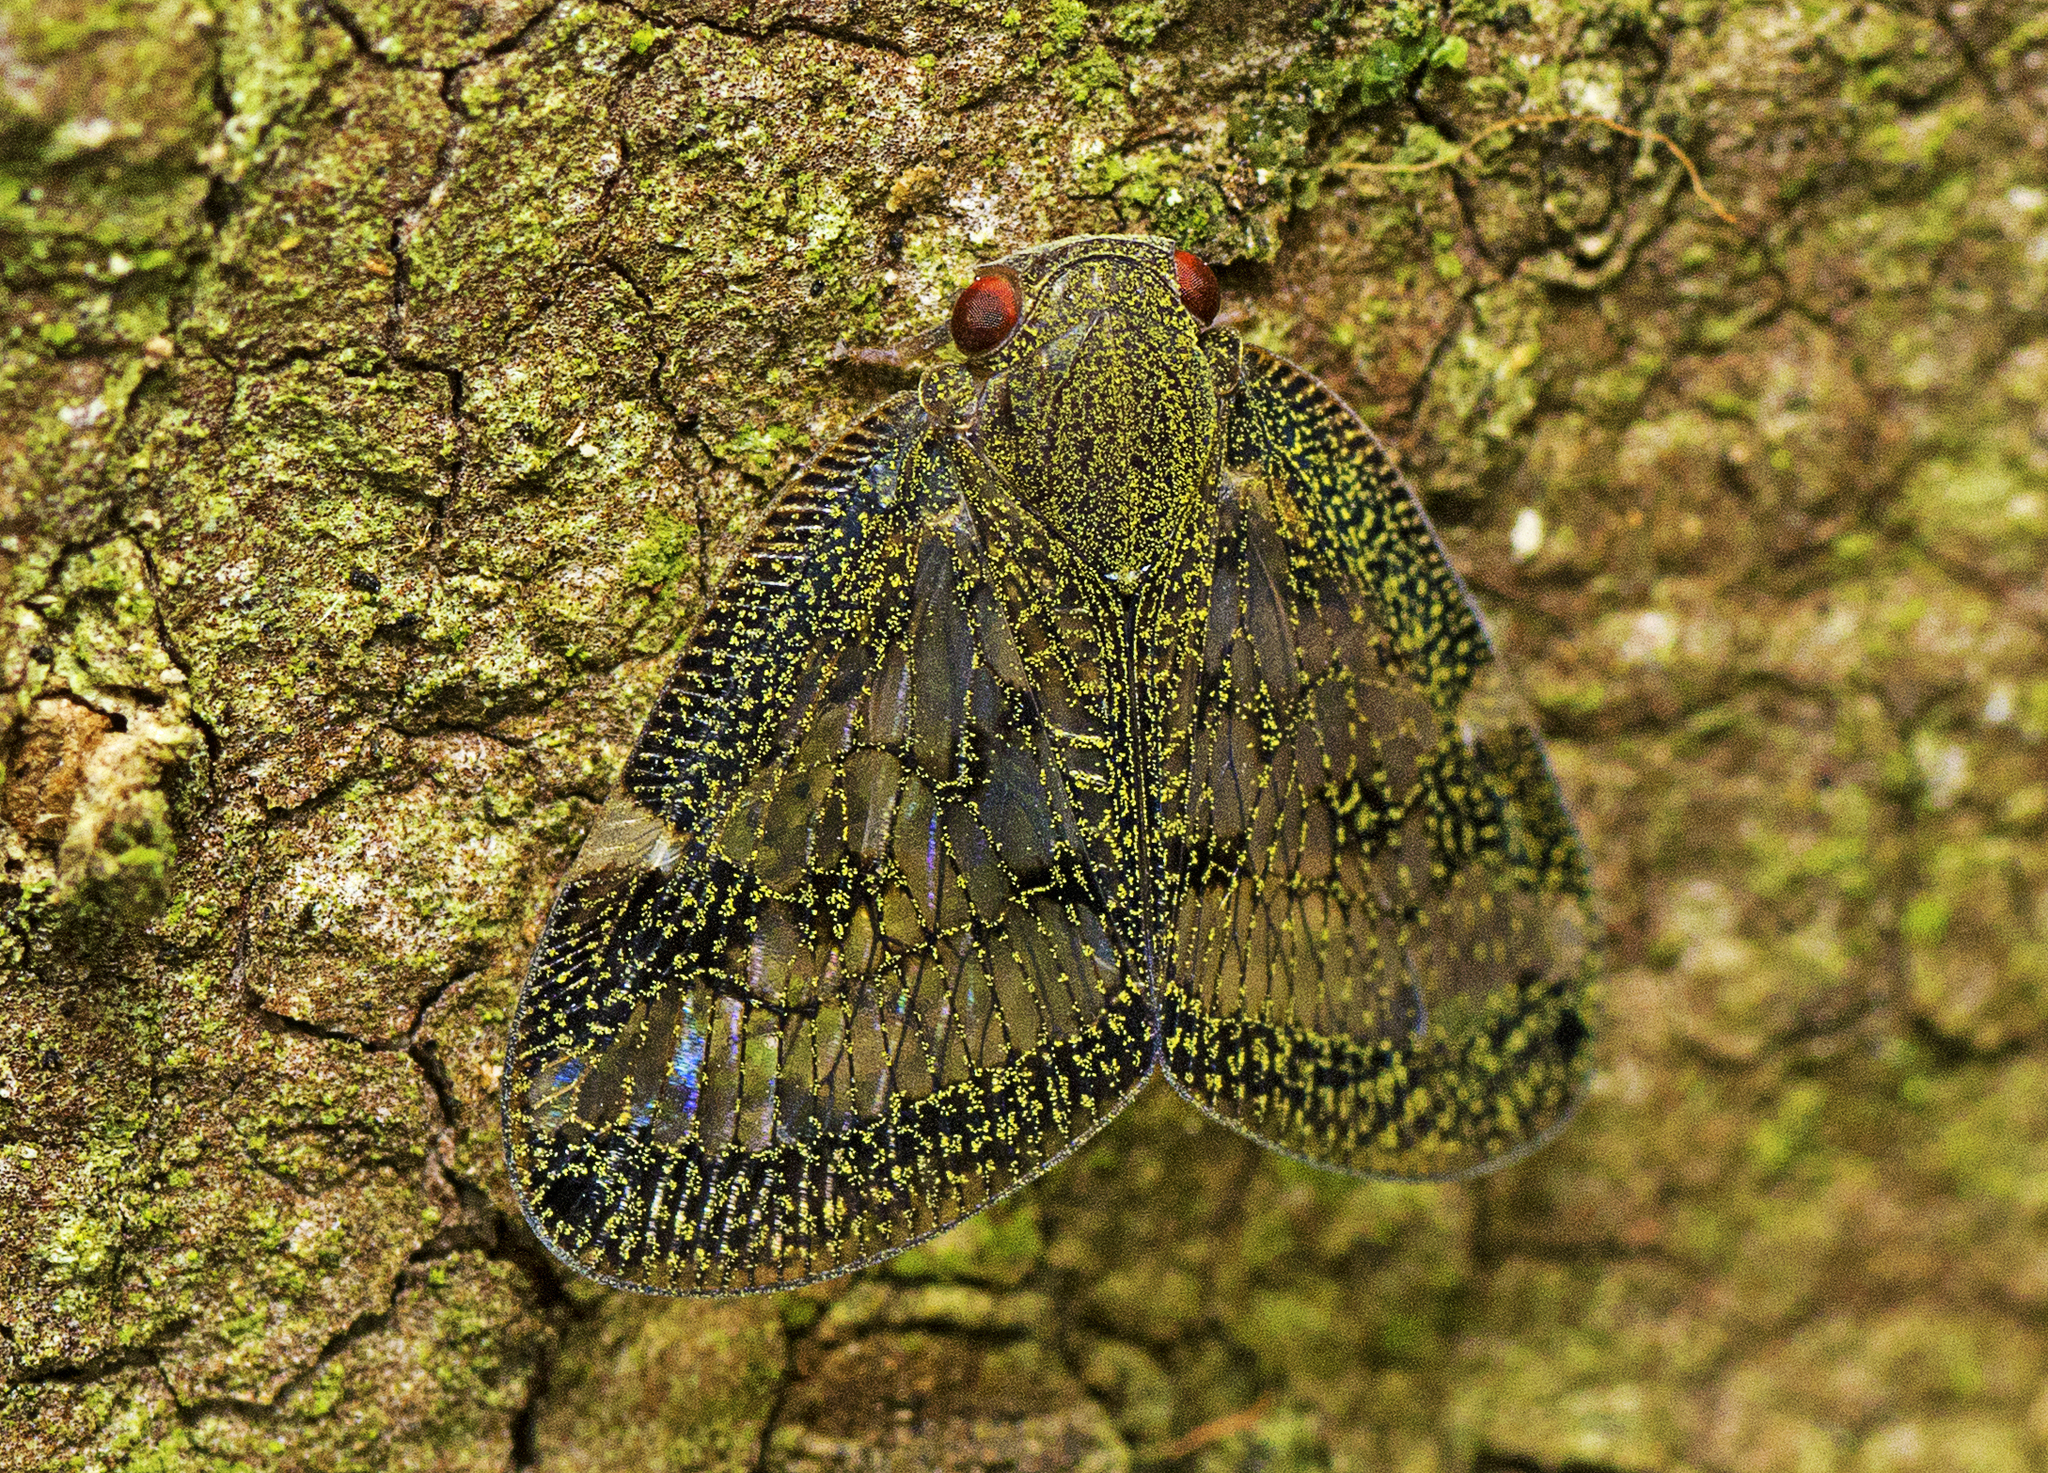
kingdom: Animalia
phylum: Arthropoda
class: Insecta
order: Hemiptera
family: Ricaniidae
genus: Scolypopa
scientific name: Scolypopa australis
